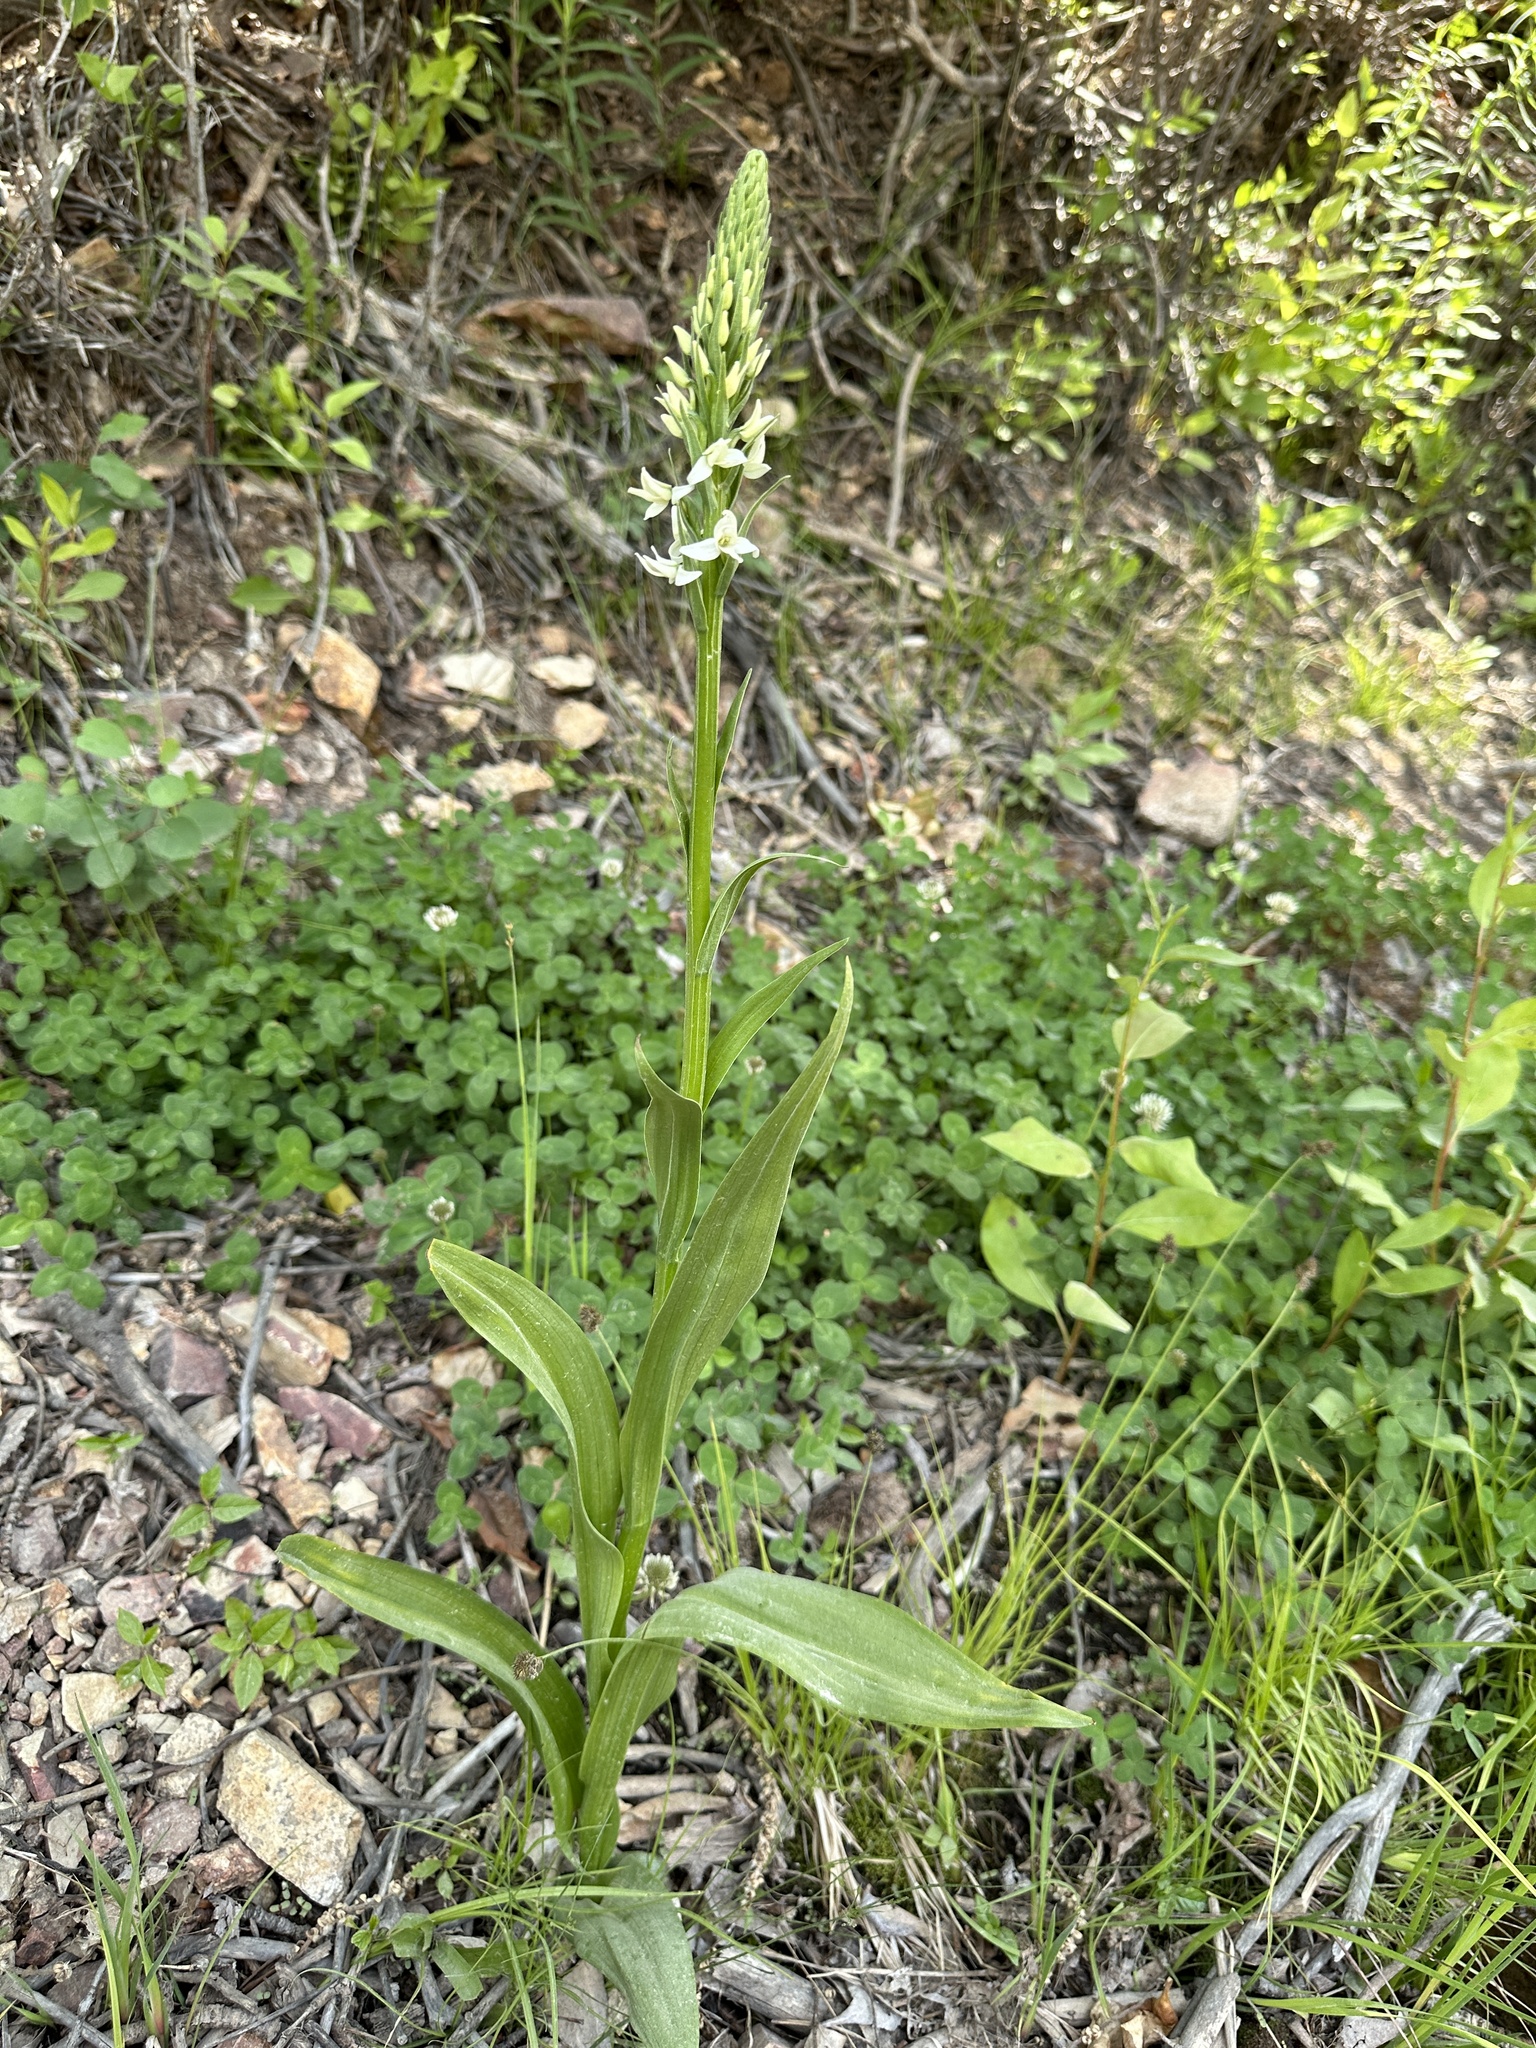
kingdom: Plantae
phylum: Tracheophyta
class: Liliopsida
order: Asparagales
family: Orchidaceae
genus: Platanthera
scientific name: Platanthera dilatata
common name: Bog candles
